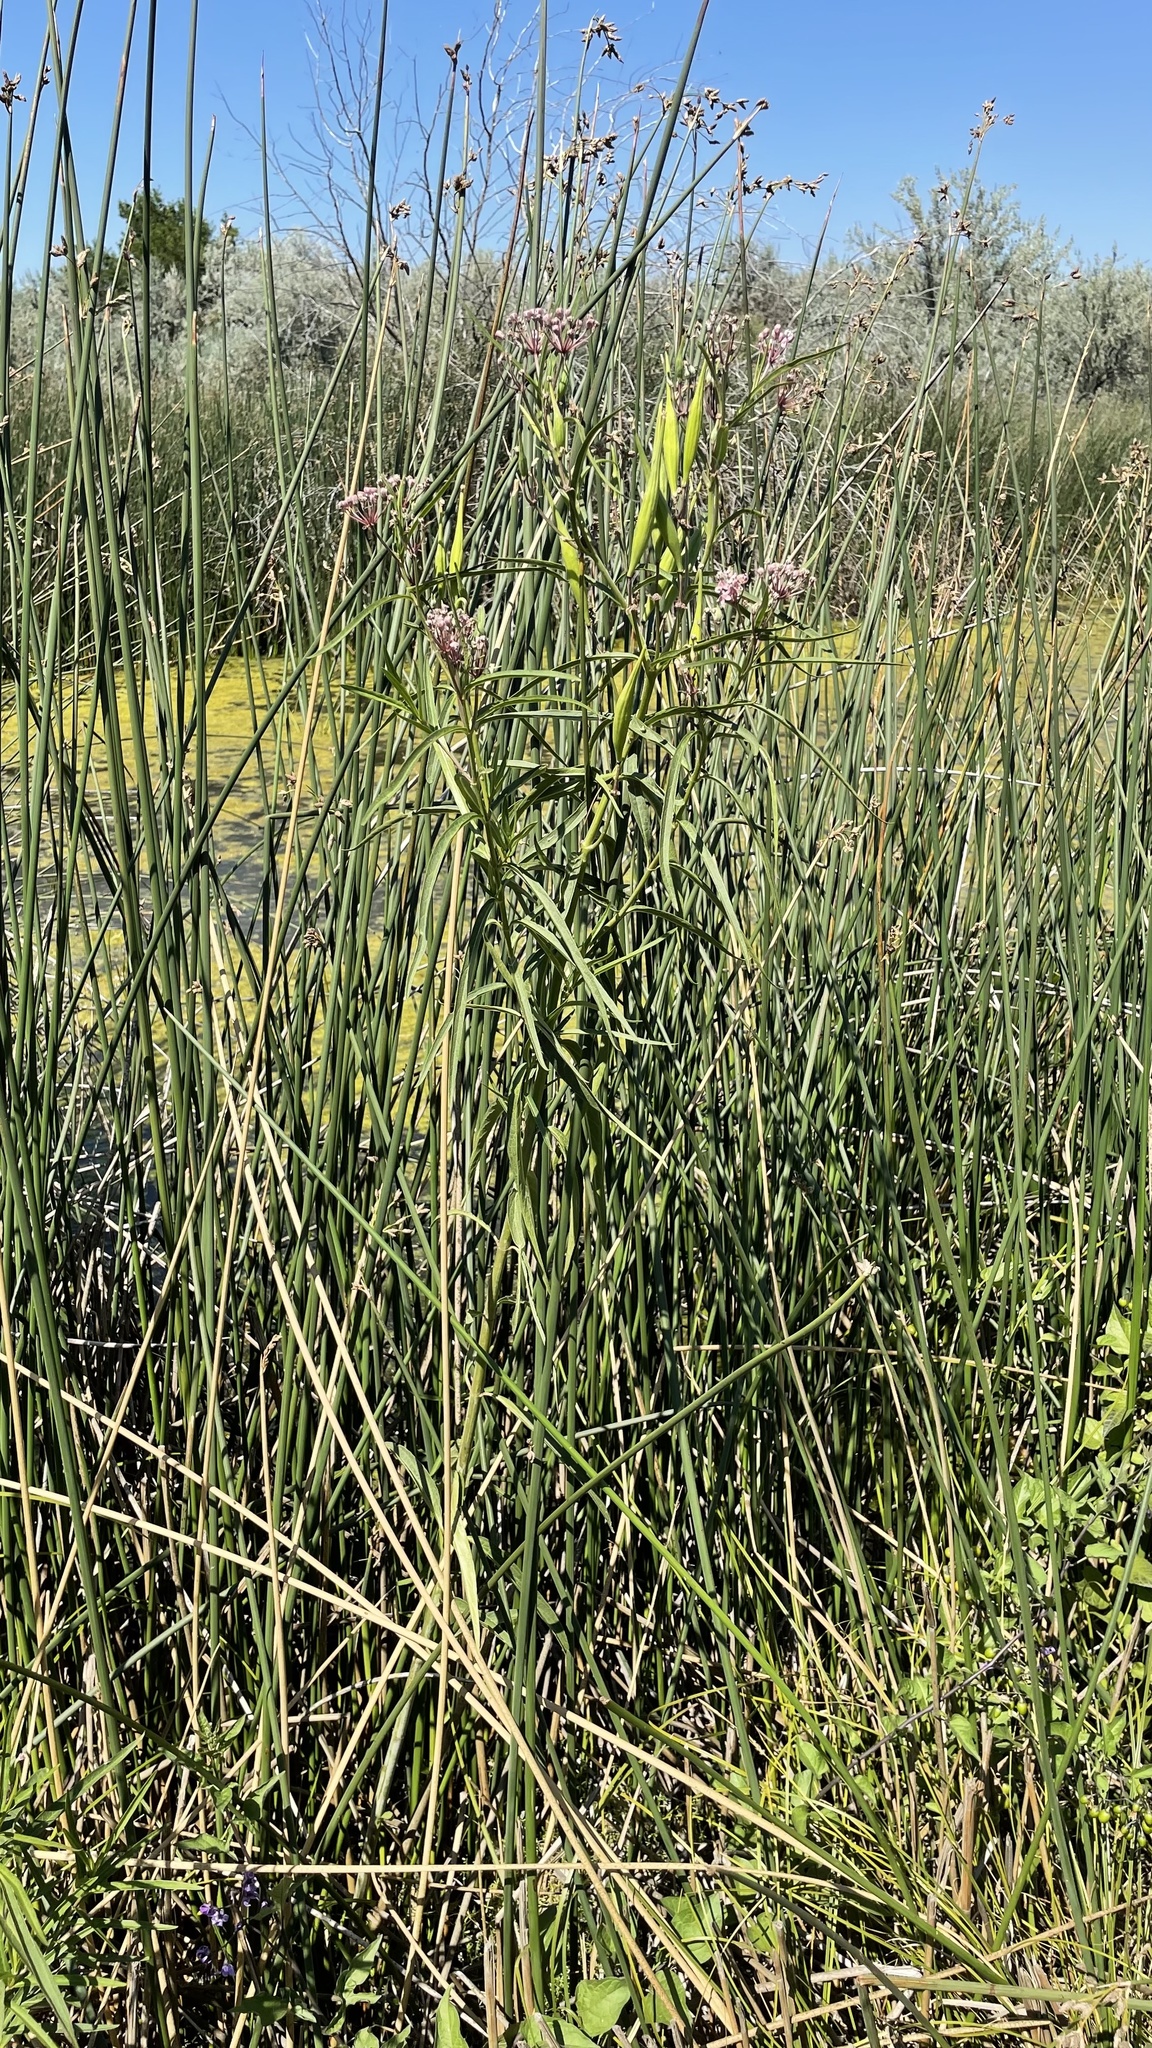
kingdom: Plantae
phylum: Tracheophyta
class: Magnoliopsida
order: Gentianales
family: Apocynaceae
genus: Asclepias
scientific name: Asclepias incarnata
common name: Swamp milkweed
